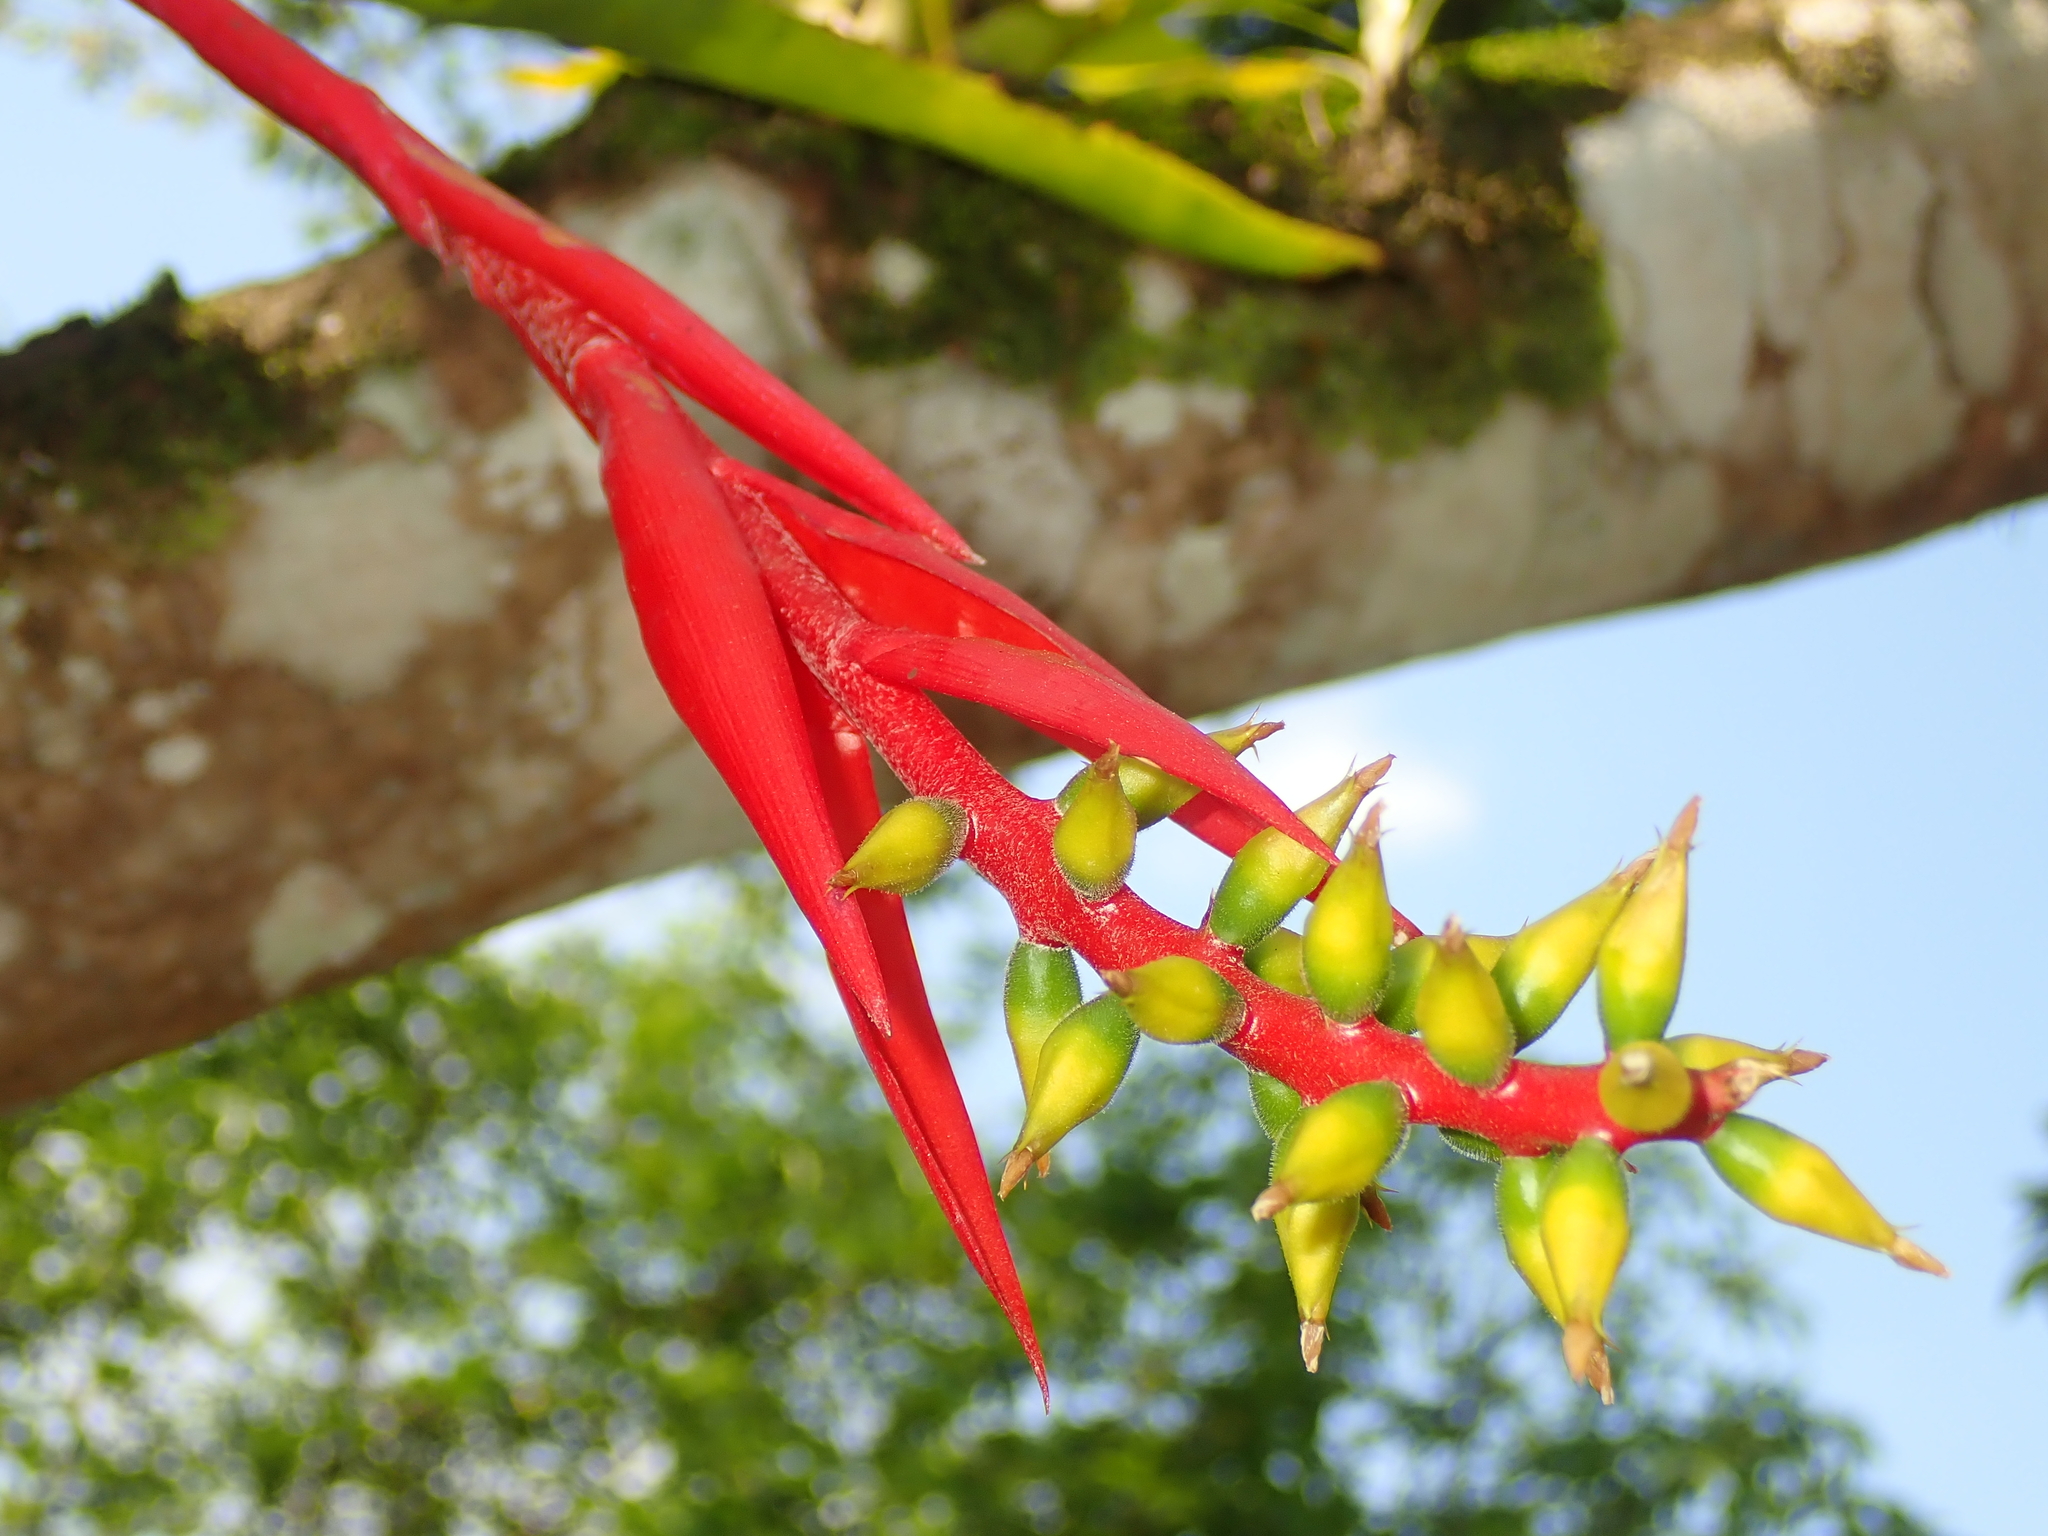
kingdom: Plantae
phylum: Tracheophyta
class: Liliopsida
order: Poales
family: Bromeliaceae
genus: Aechmea
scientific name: Aechmea nudicaulis
